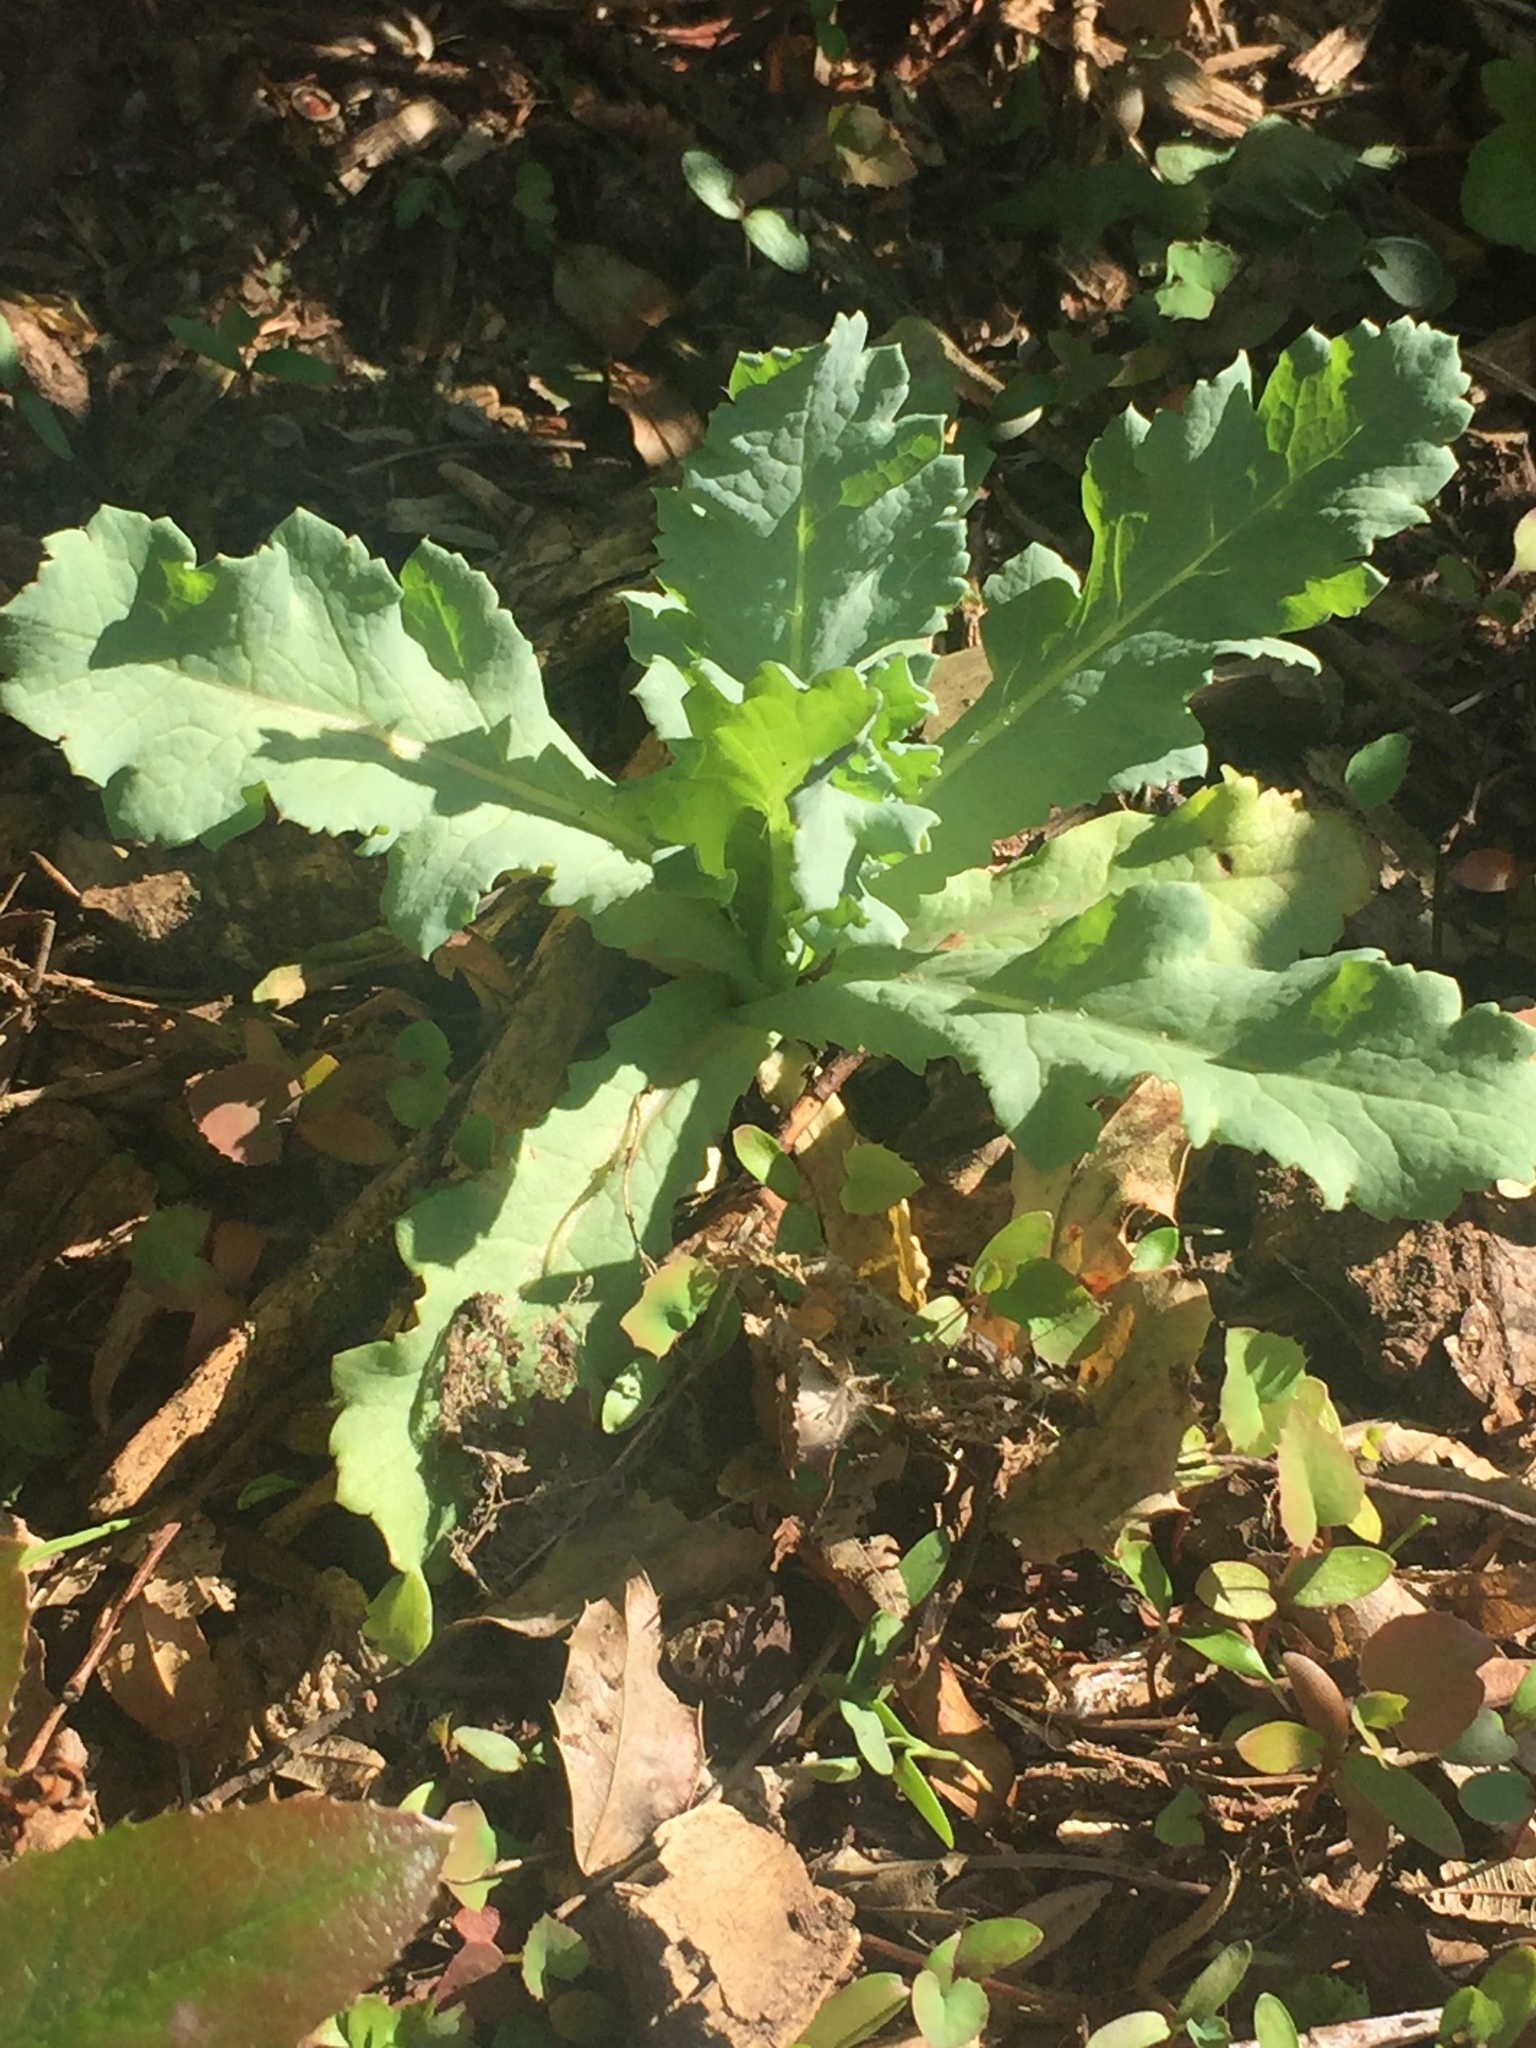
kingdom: Plantae
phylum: Tracheophyta
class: Magnoliopsida
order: Ranunculales
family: Papaveraceae
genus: Papaver
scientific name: Papaver somniferum
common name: Opium poppy
